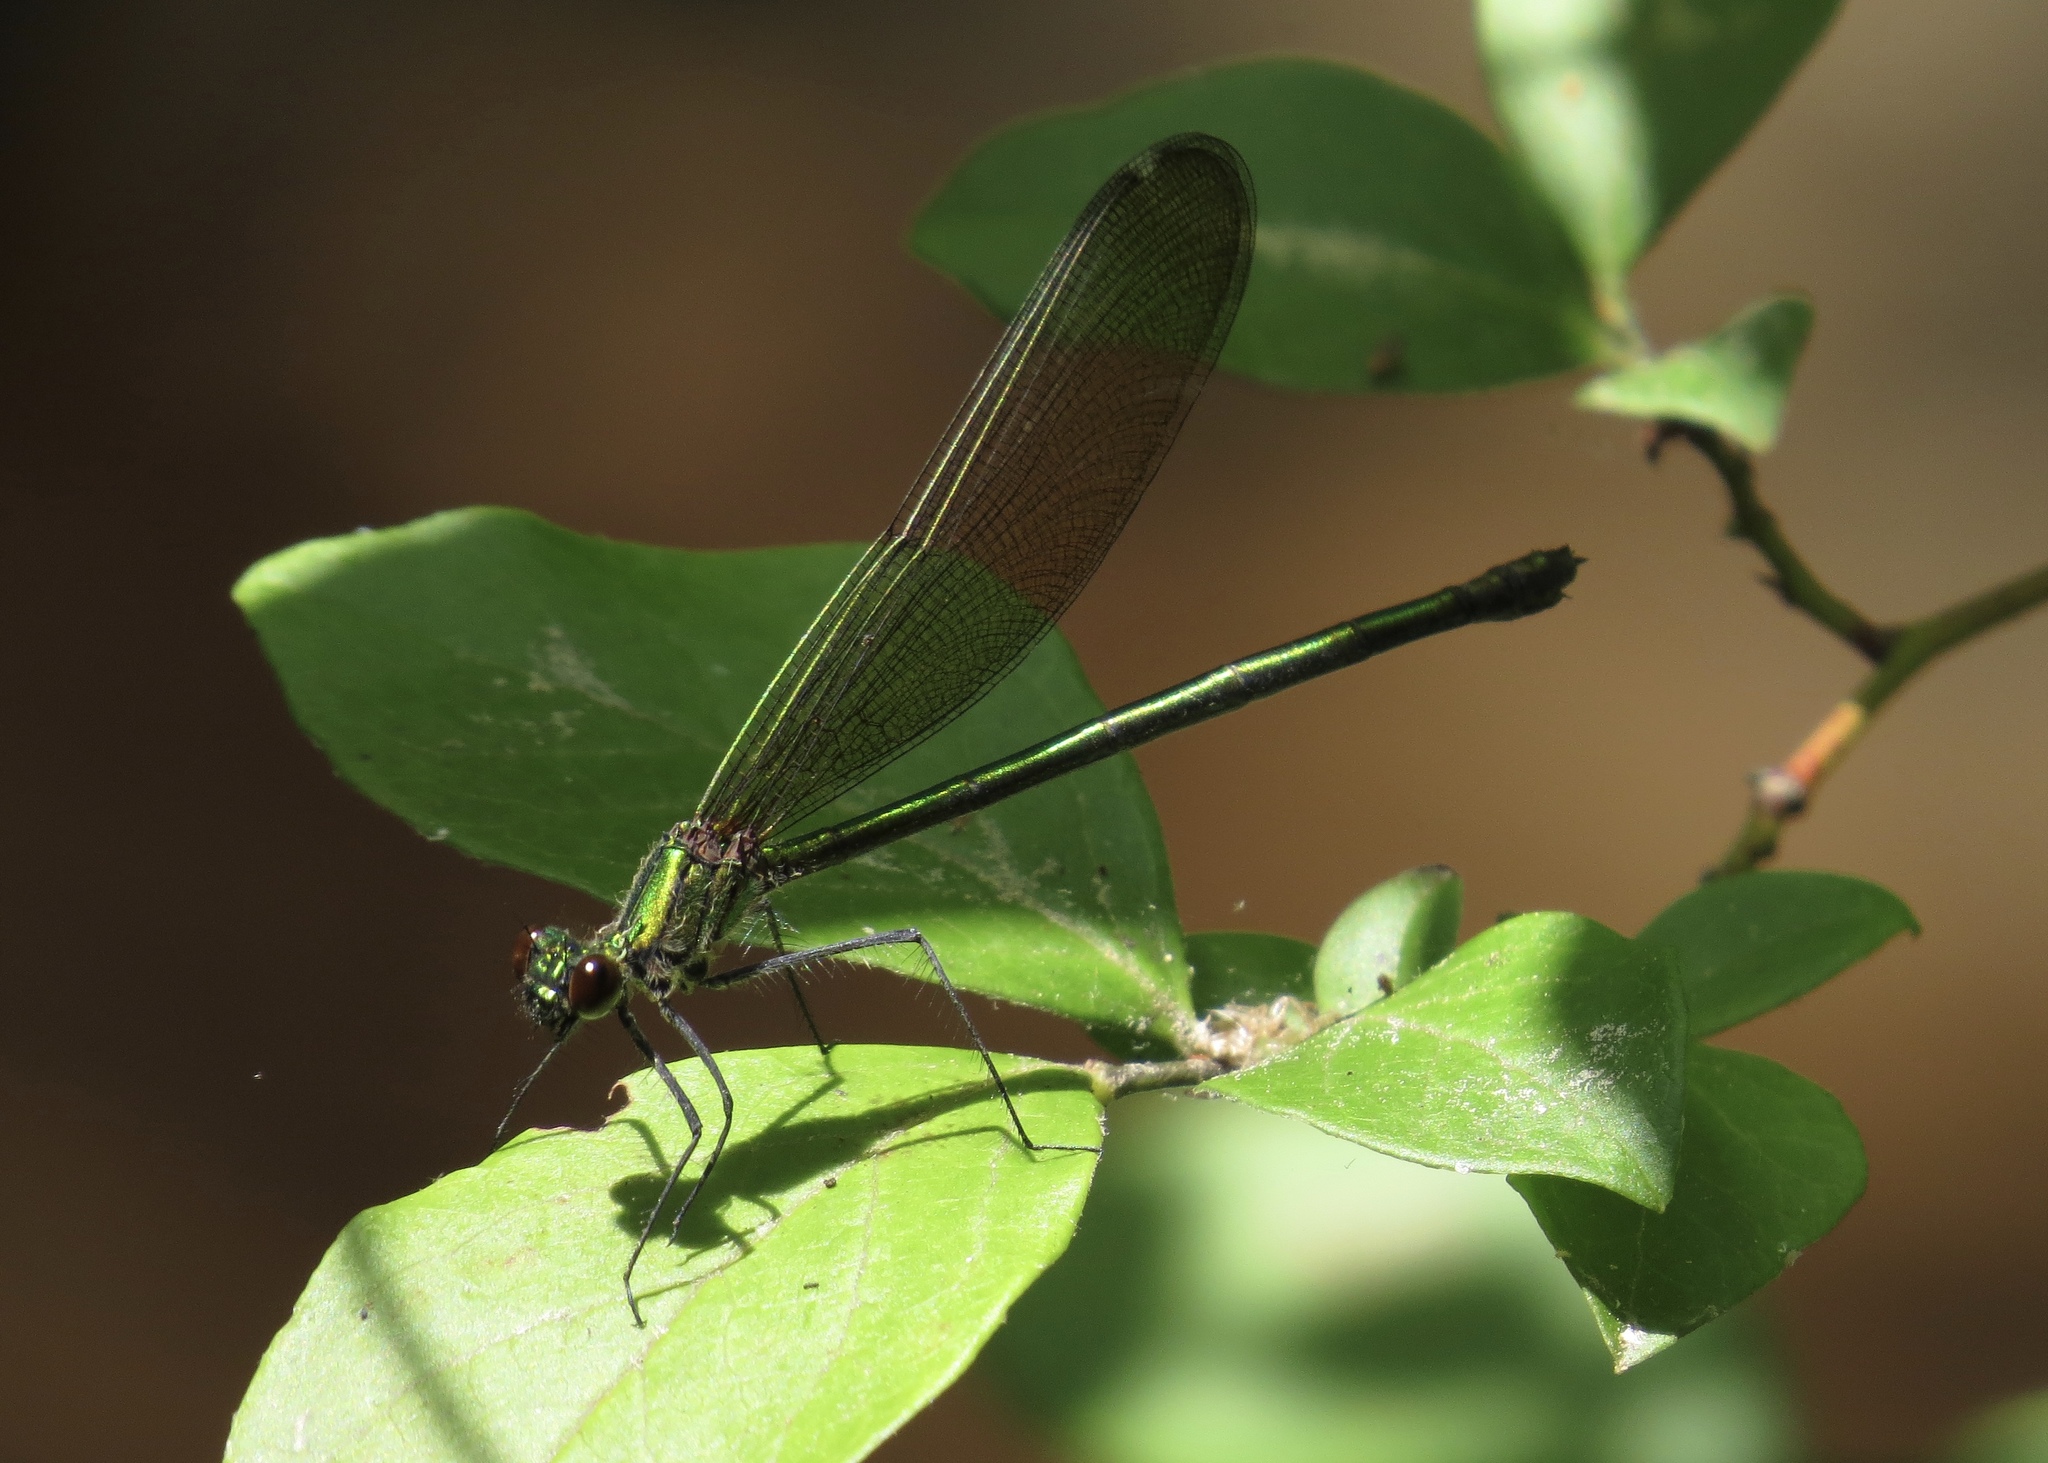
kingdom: Animalia
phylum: Arthropoda
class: Insecta
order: Odonata
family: Calopterygidae
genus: Calopteryx
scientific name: Calopteryx dimidiata
